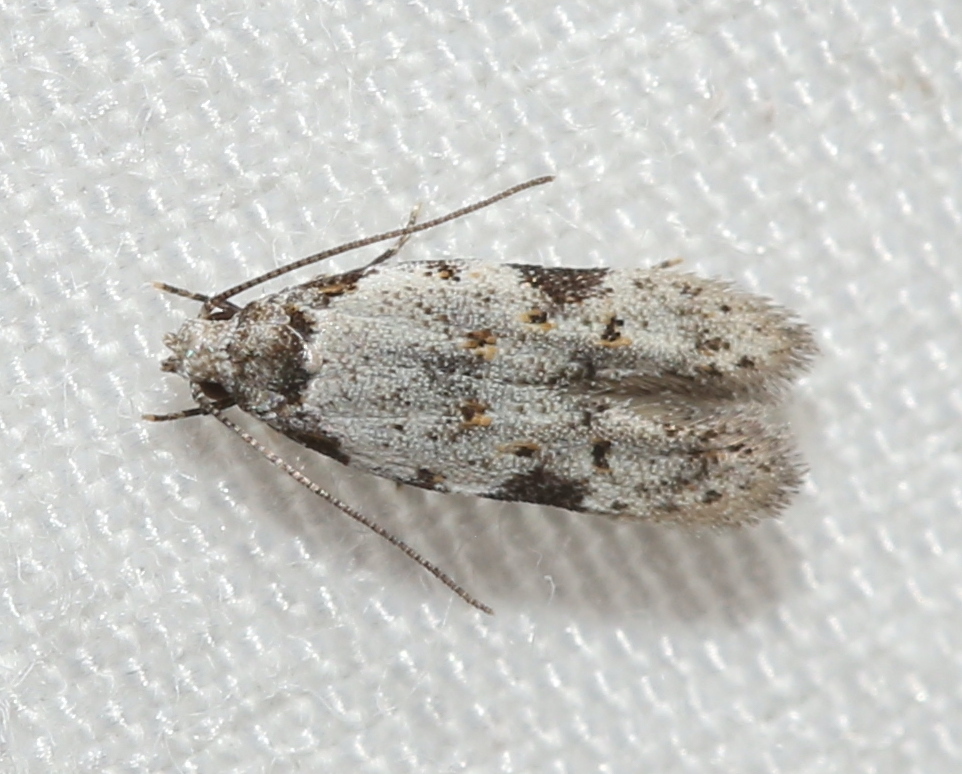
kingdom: Animalia
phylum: Arthropoda
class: Insecta
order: Lepidoptera
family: Autostichidae
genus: Taygete
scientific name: Taygete attributella
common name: Triangle-marked twirler moth
